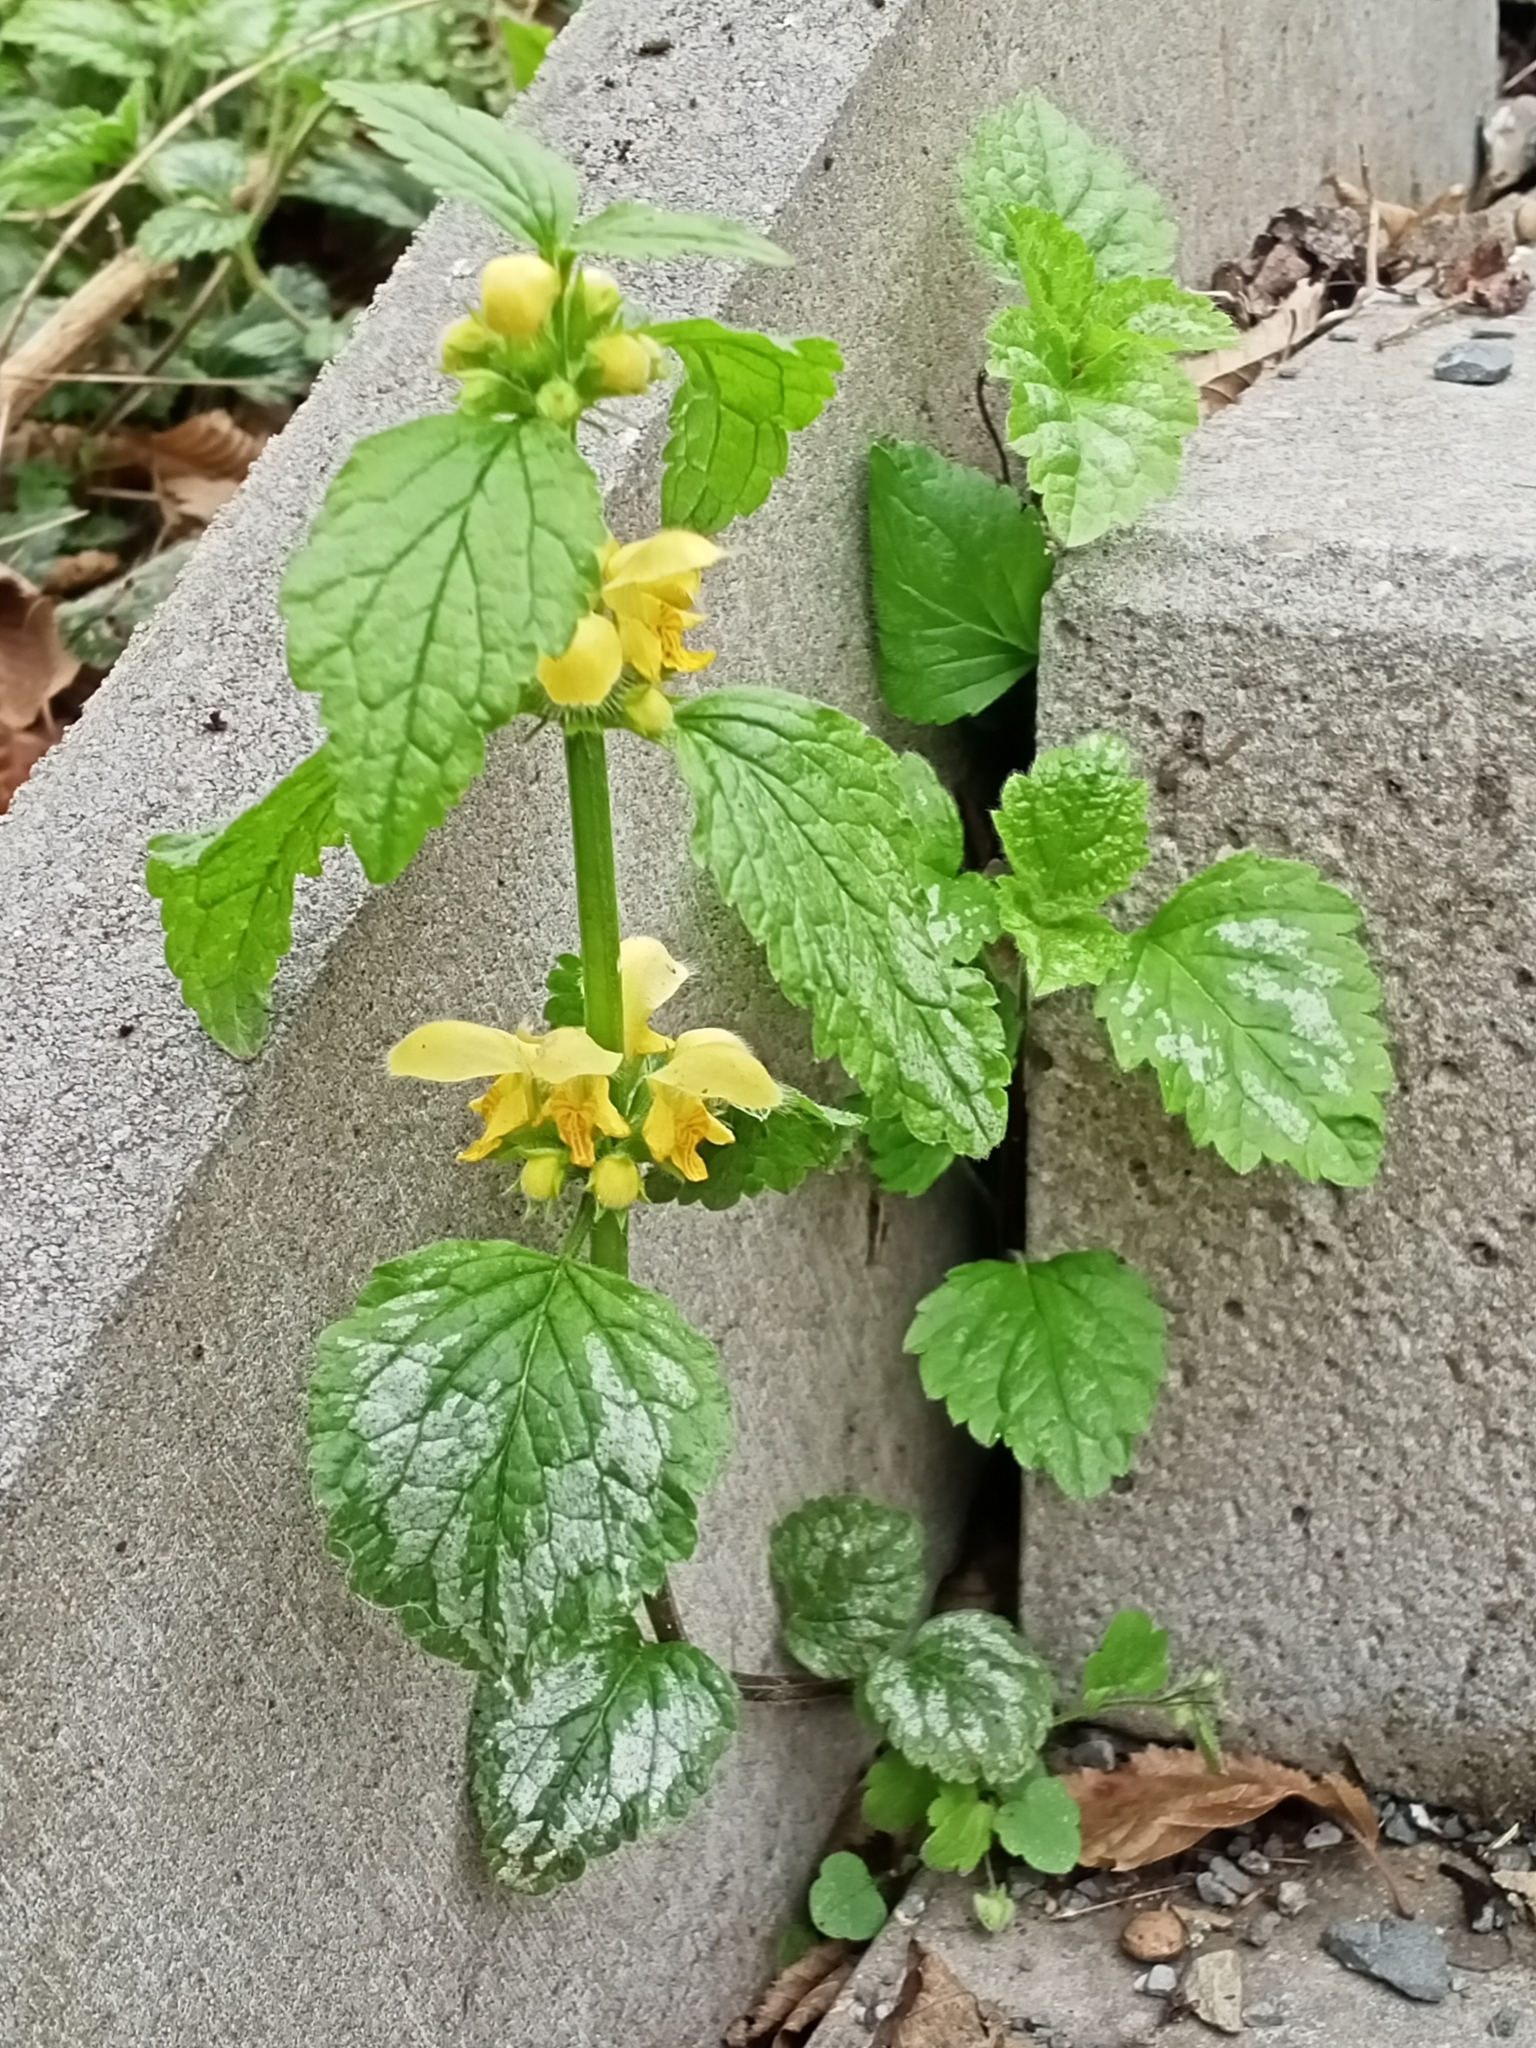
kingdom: Plantae
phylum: Tracheophyta
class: Magnoliopsida
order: Lamiales
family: Lamiaceae
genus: Lamium
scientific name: Lamium galeobdolon
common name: Yellow archangel
